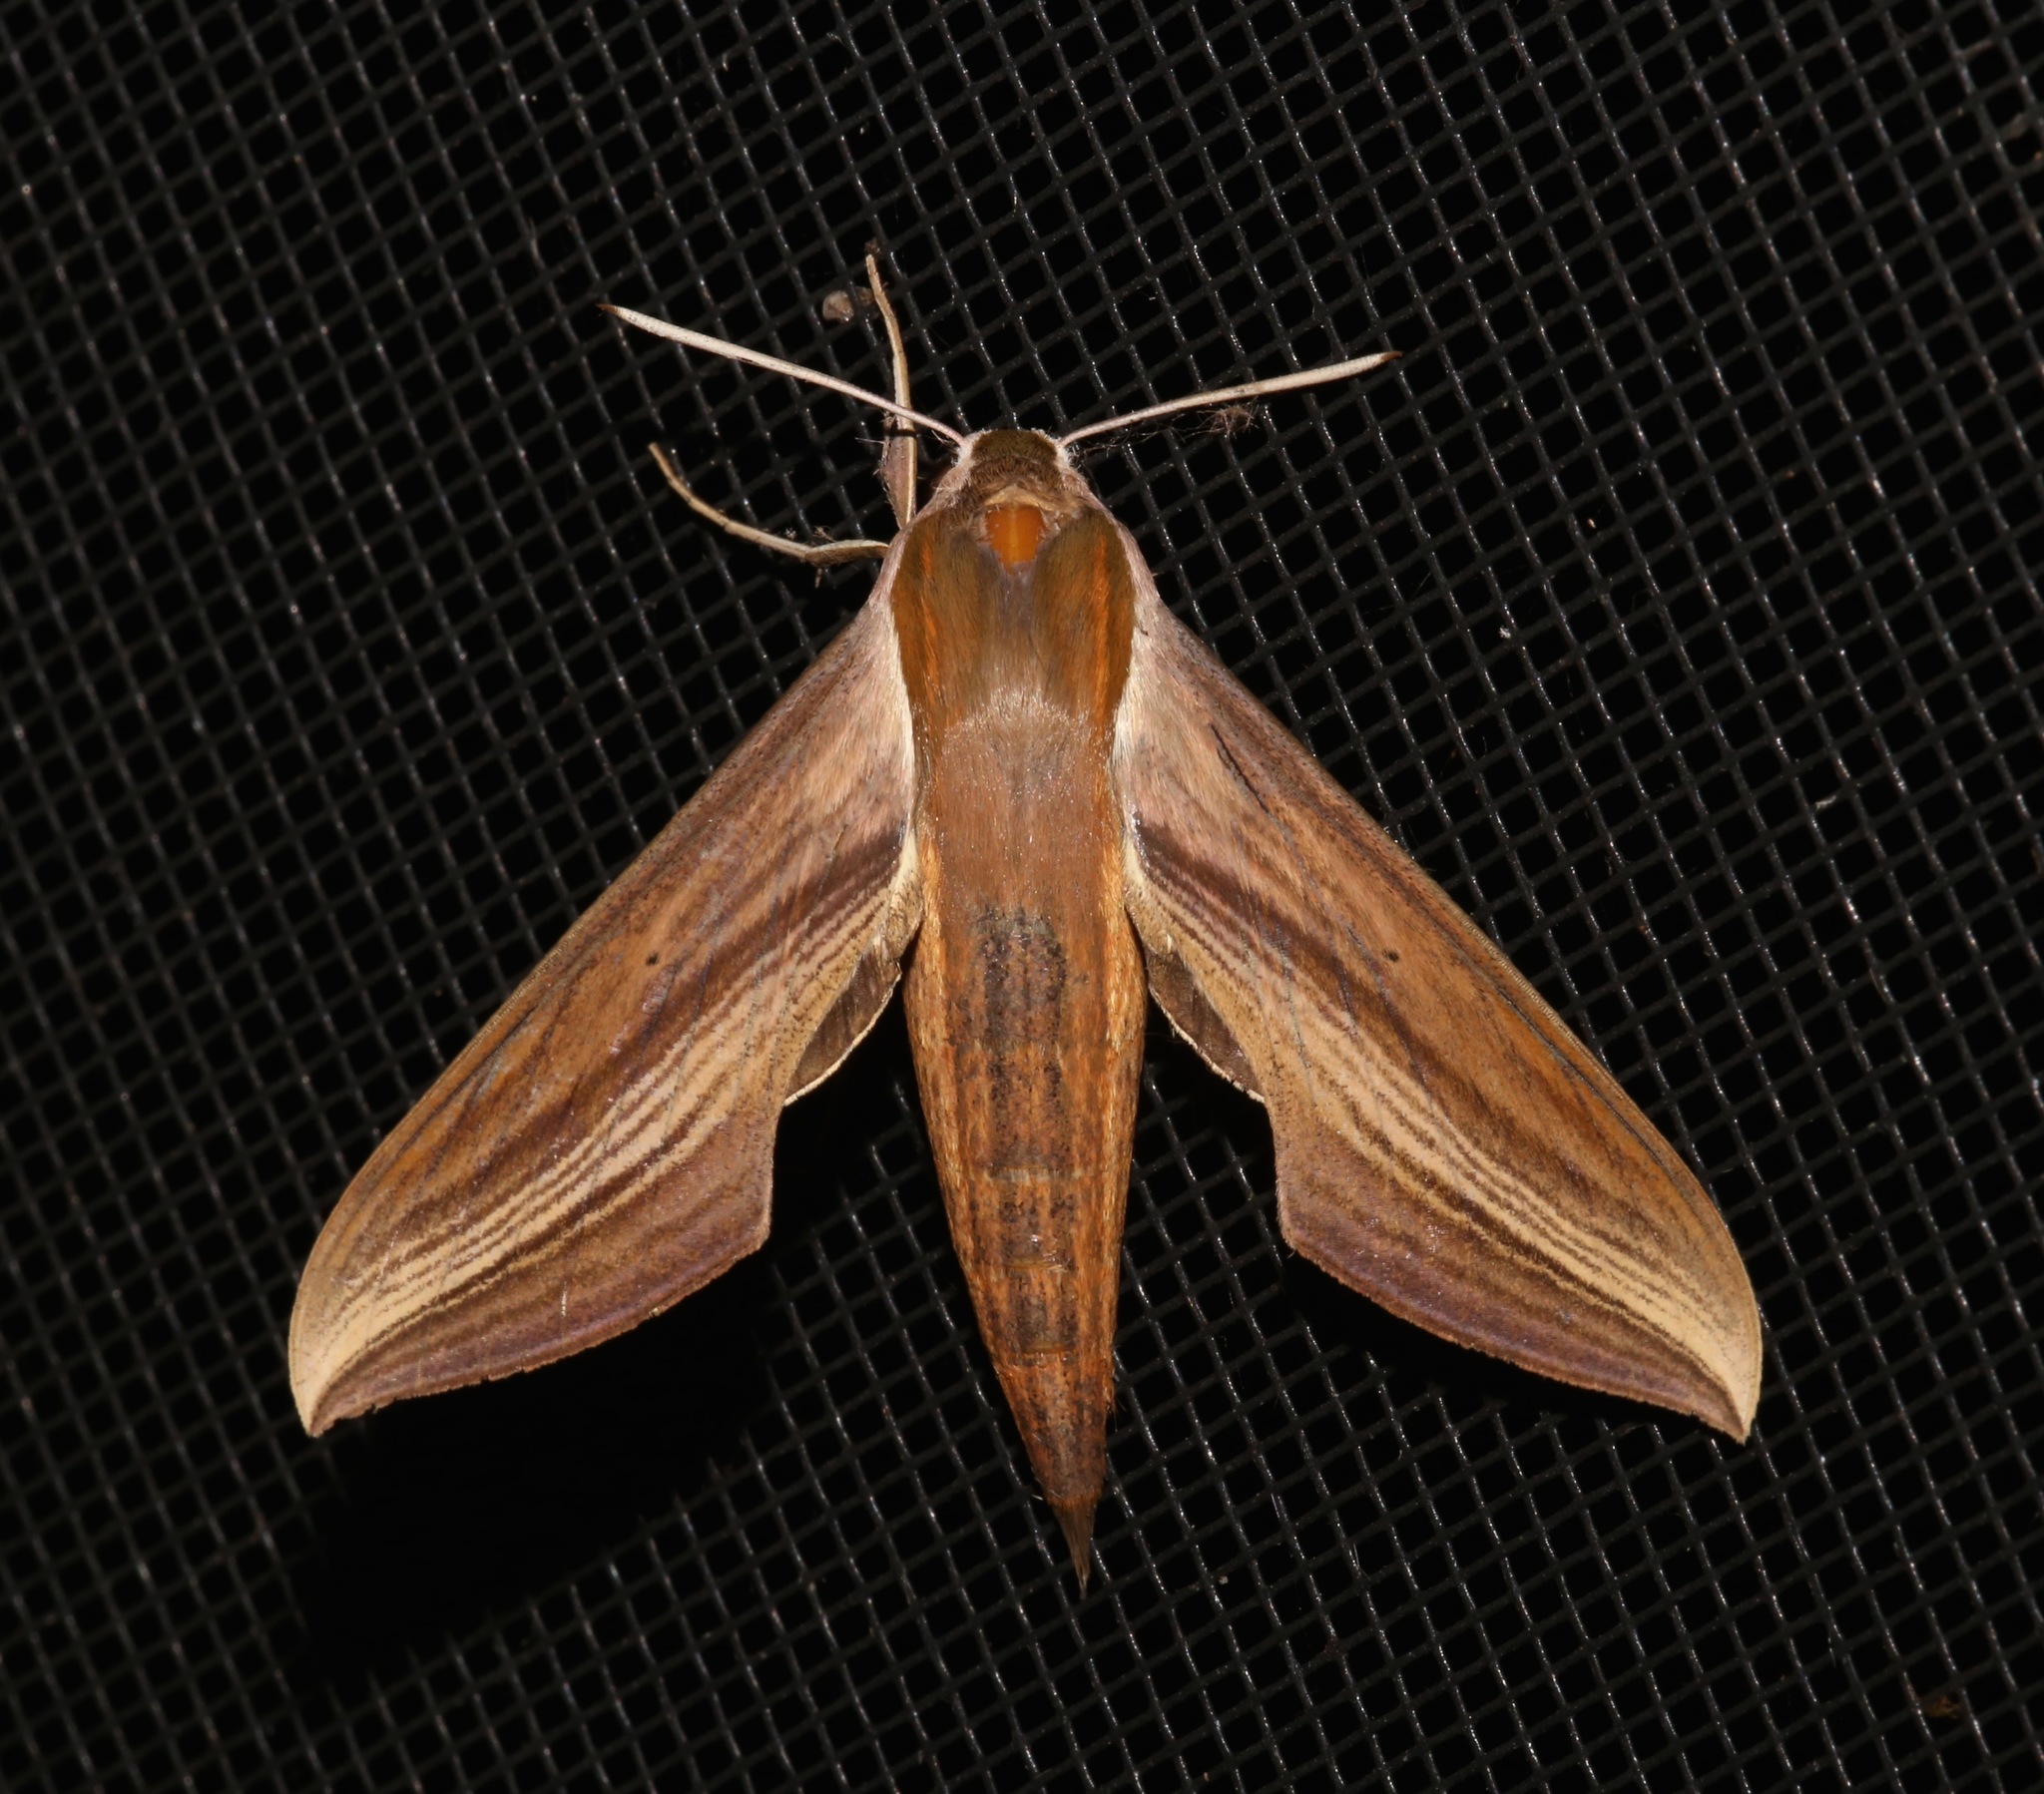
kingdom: Animalia
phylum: Arthropoda
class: Insecta
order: Lepidoptera
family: Sphingidae
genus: Xylophanes
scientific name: Xylophanes tersa
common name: Tersa sphinx
